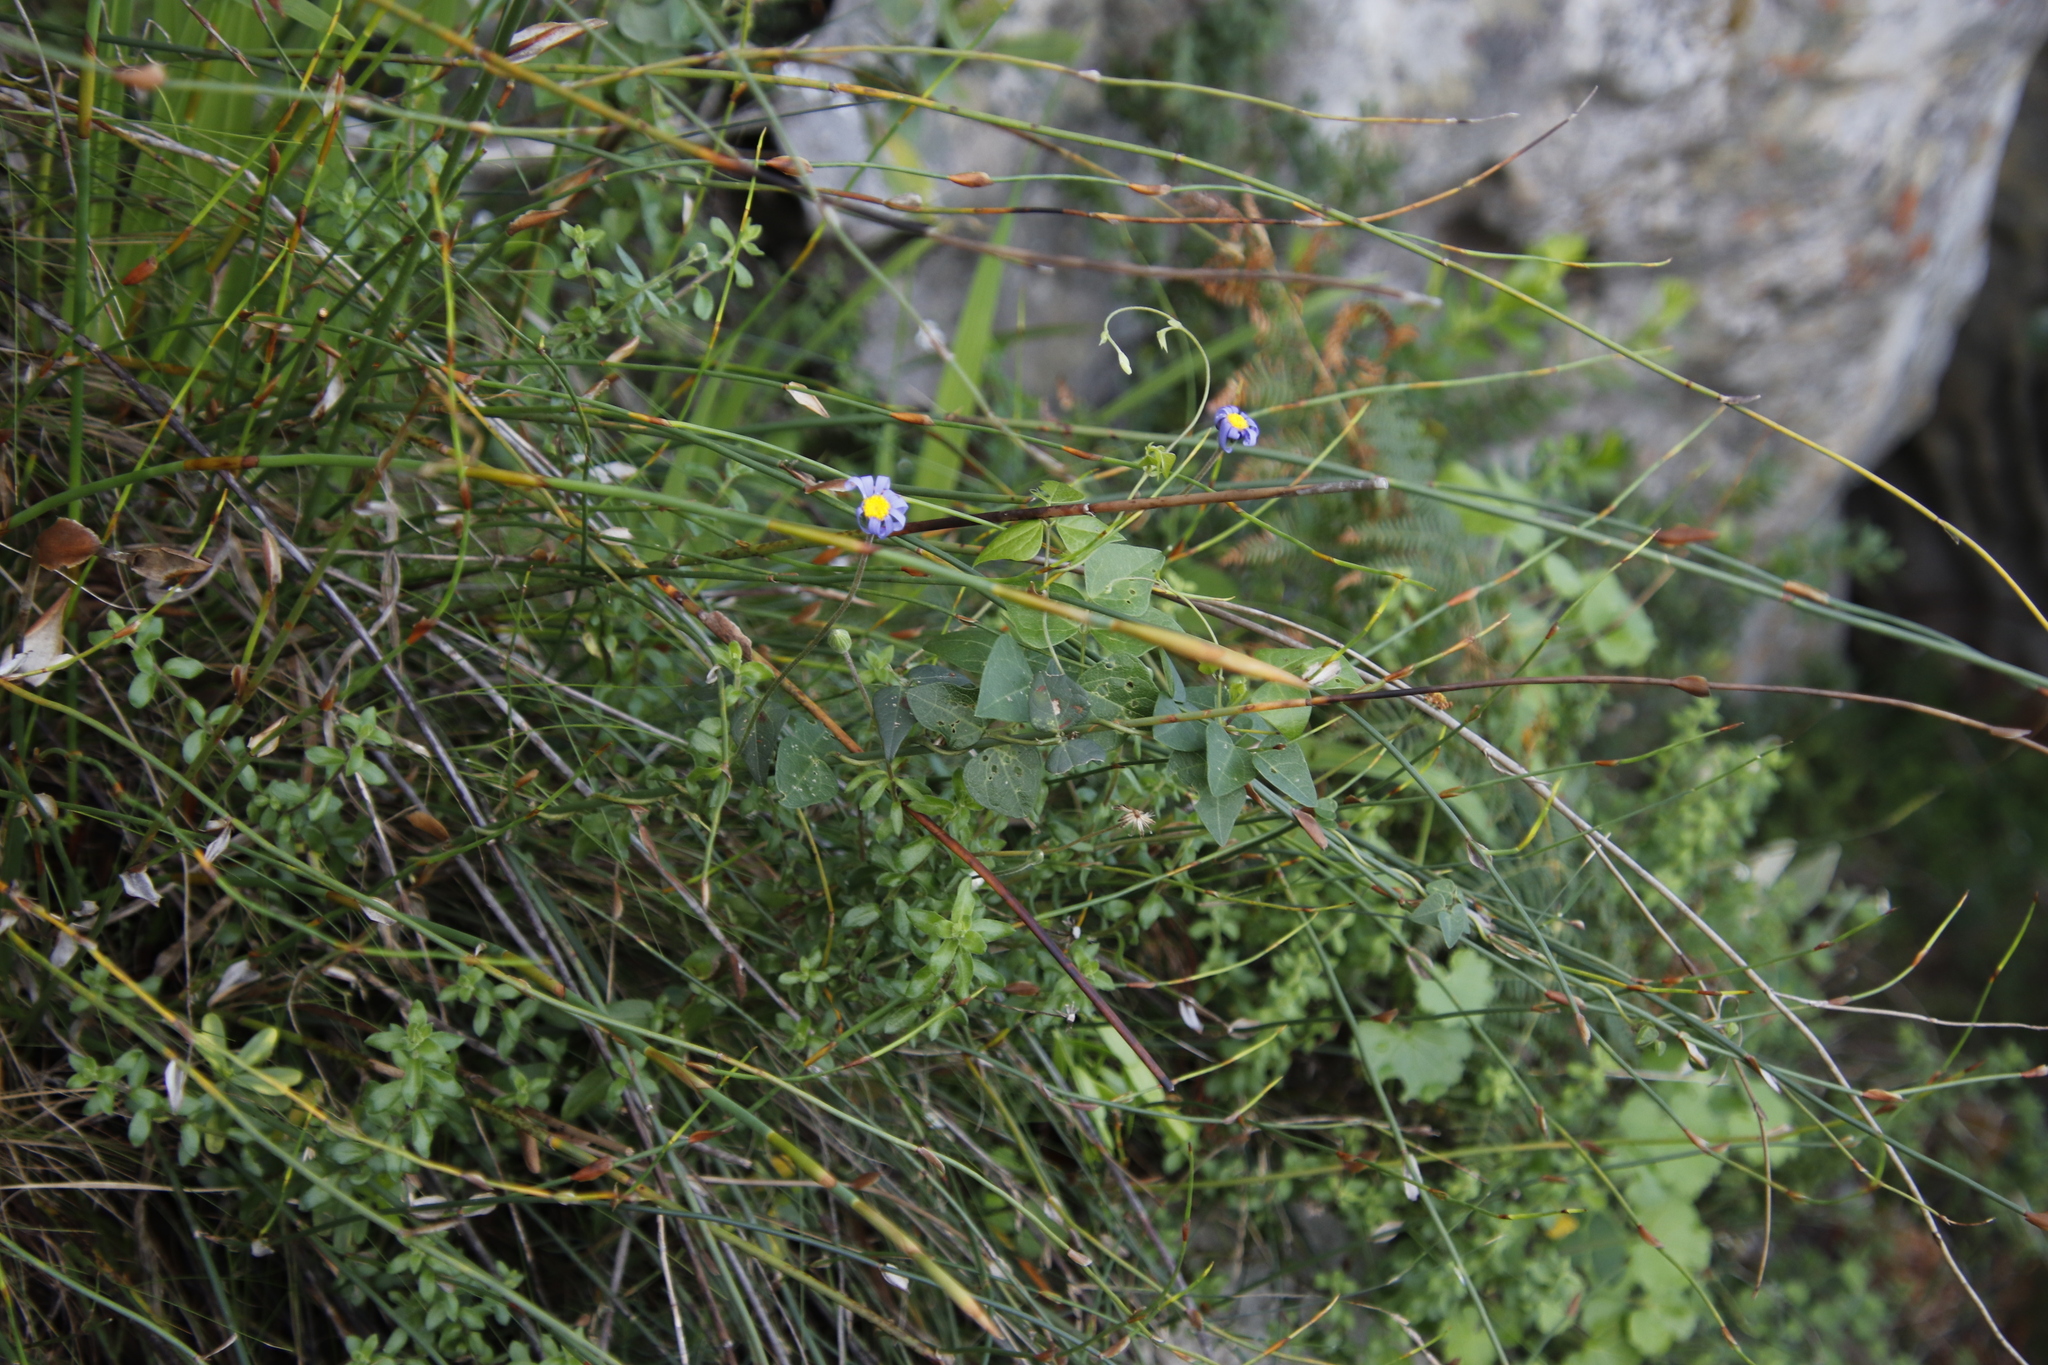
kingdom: Plantae
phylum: Tracheophyta
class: Magnoliopsida
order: Fabales
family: Fabaceae
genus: Dipogon
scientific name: Dipogon lignosus
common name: Okie bean
